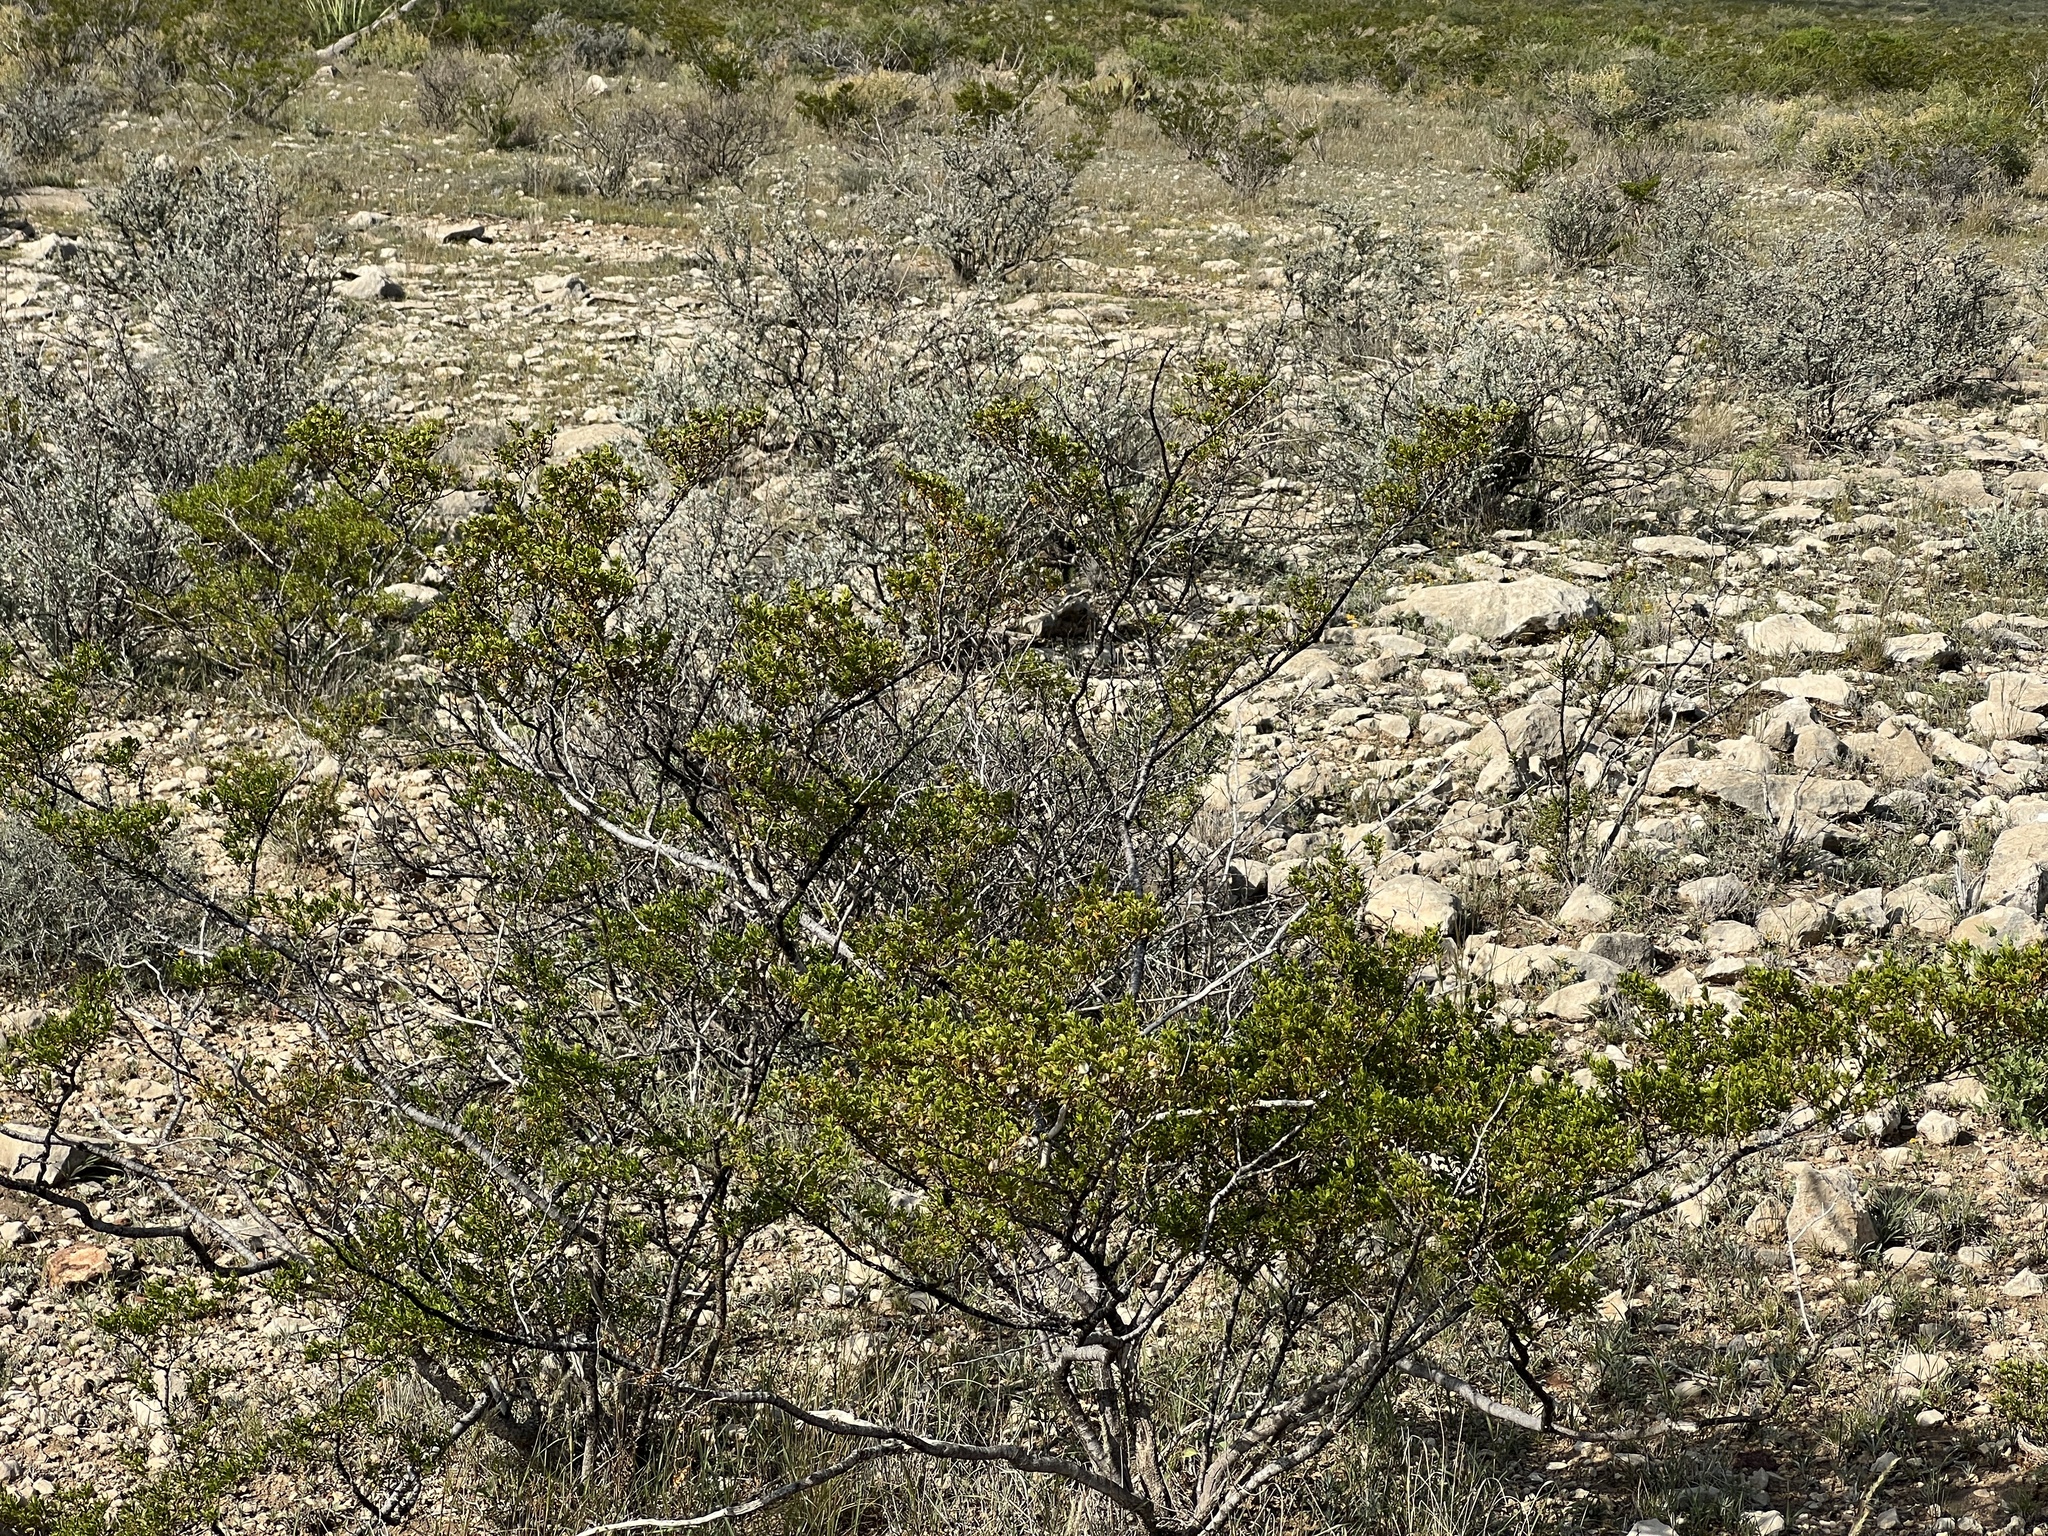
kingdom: Plantae
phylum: Tracheophyta
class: Magnoliopsida
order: Zygophyllales
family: Zygophyllaceae
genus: Larrea
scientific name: Larrea tridentata
